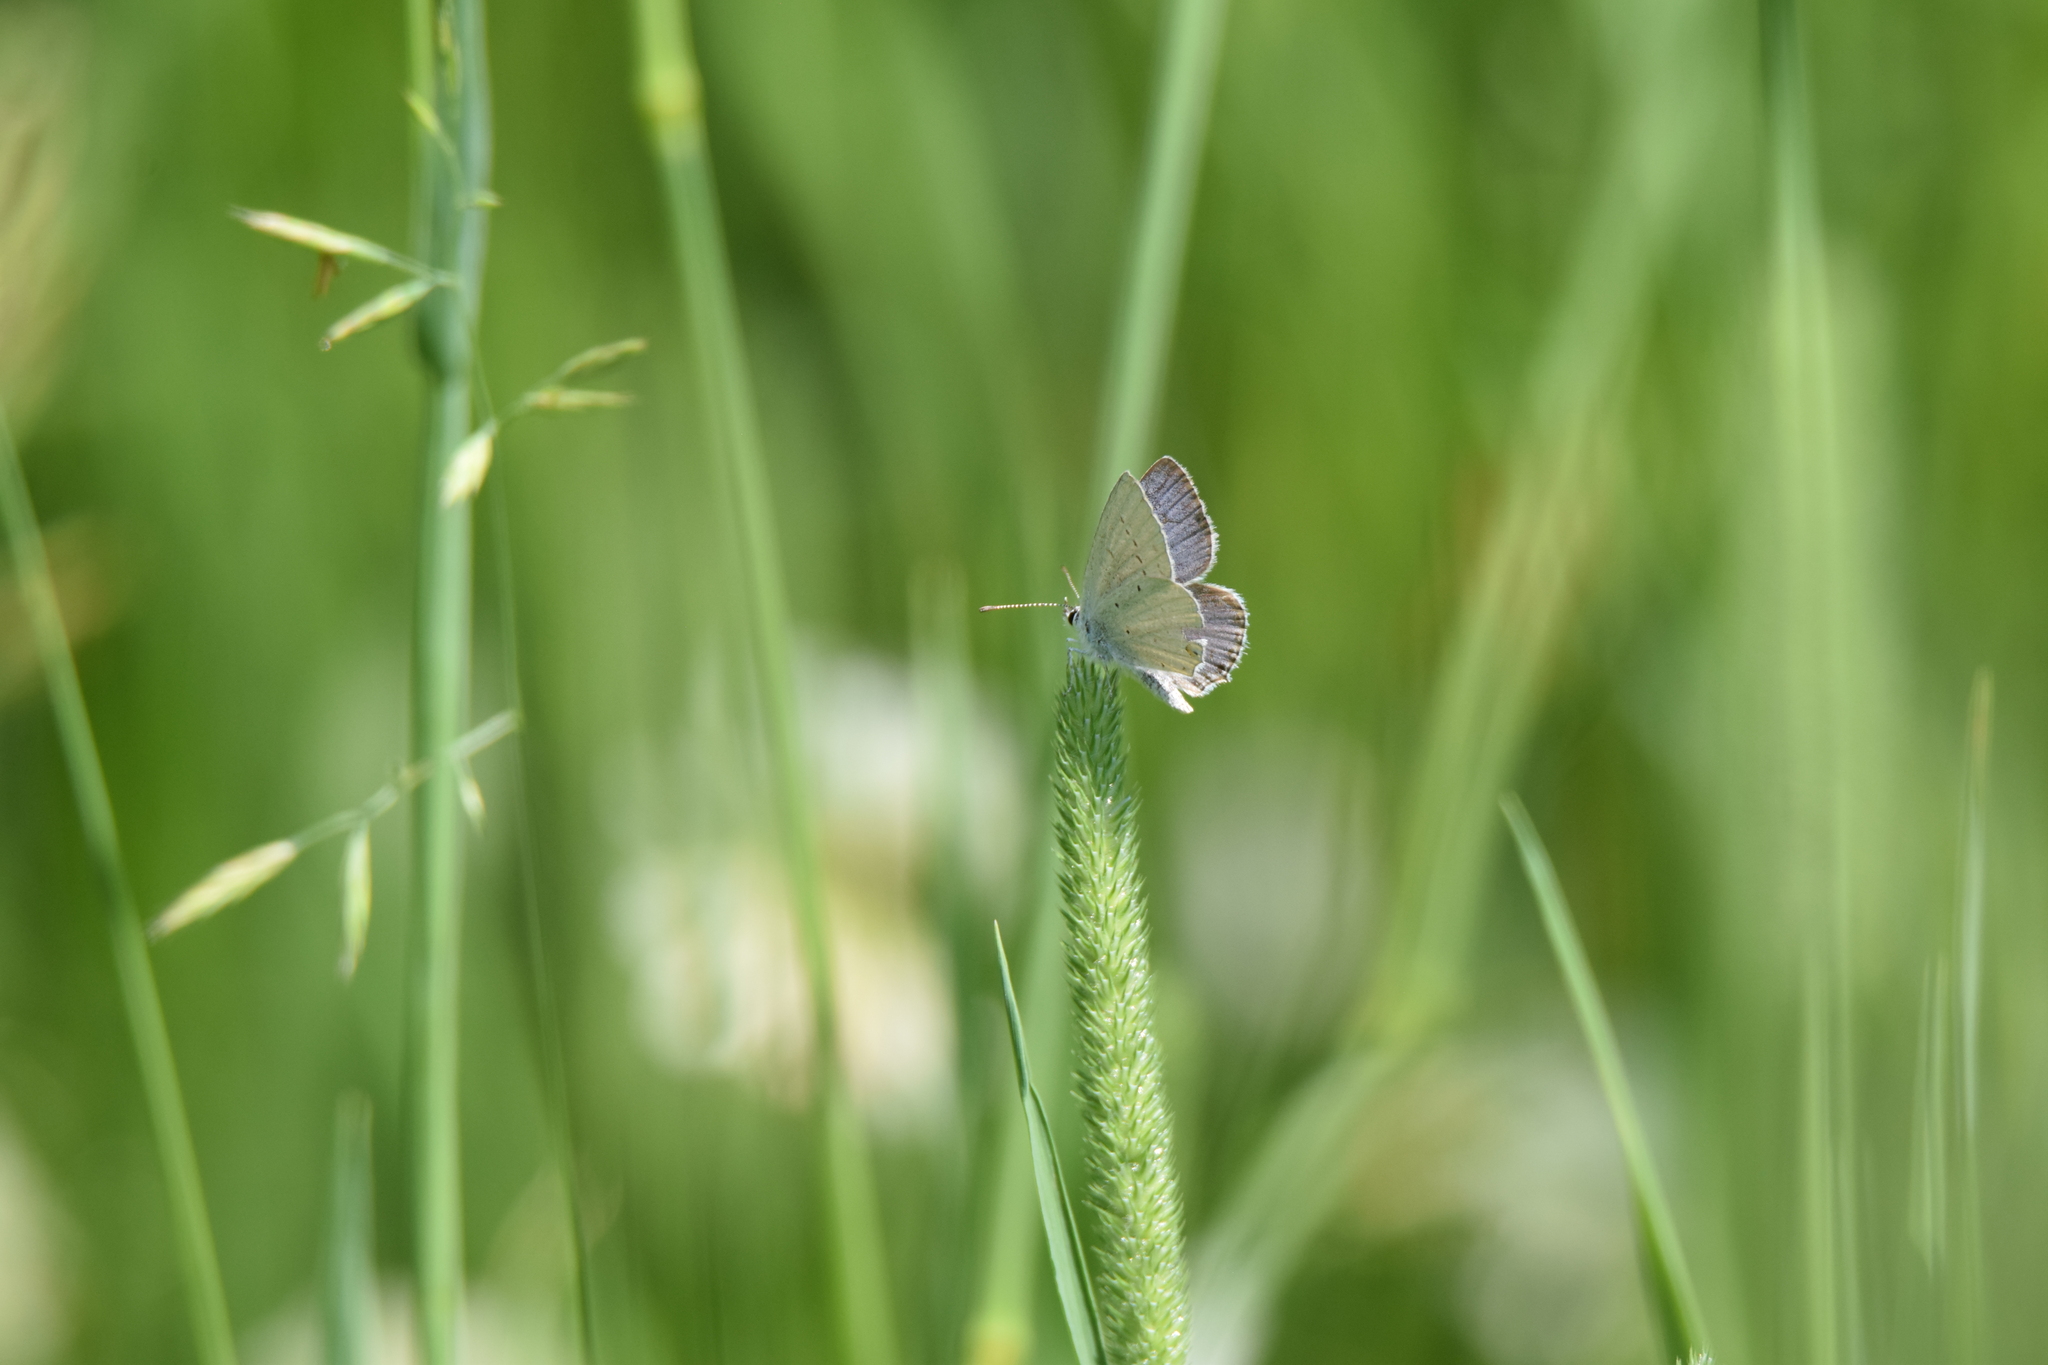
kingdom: Animalia
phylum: Arthropoda
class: Insecta
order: Lepidoptera
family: Lycaenidae
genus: Elkalyce
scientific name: Elkalyce amyntula
